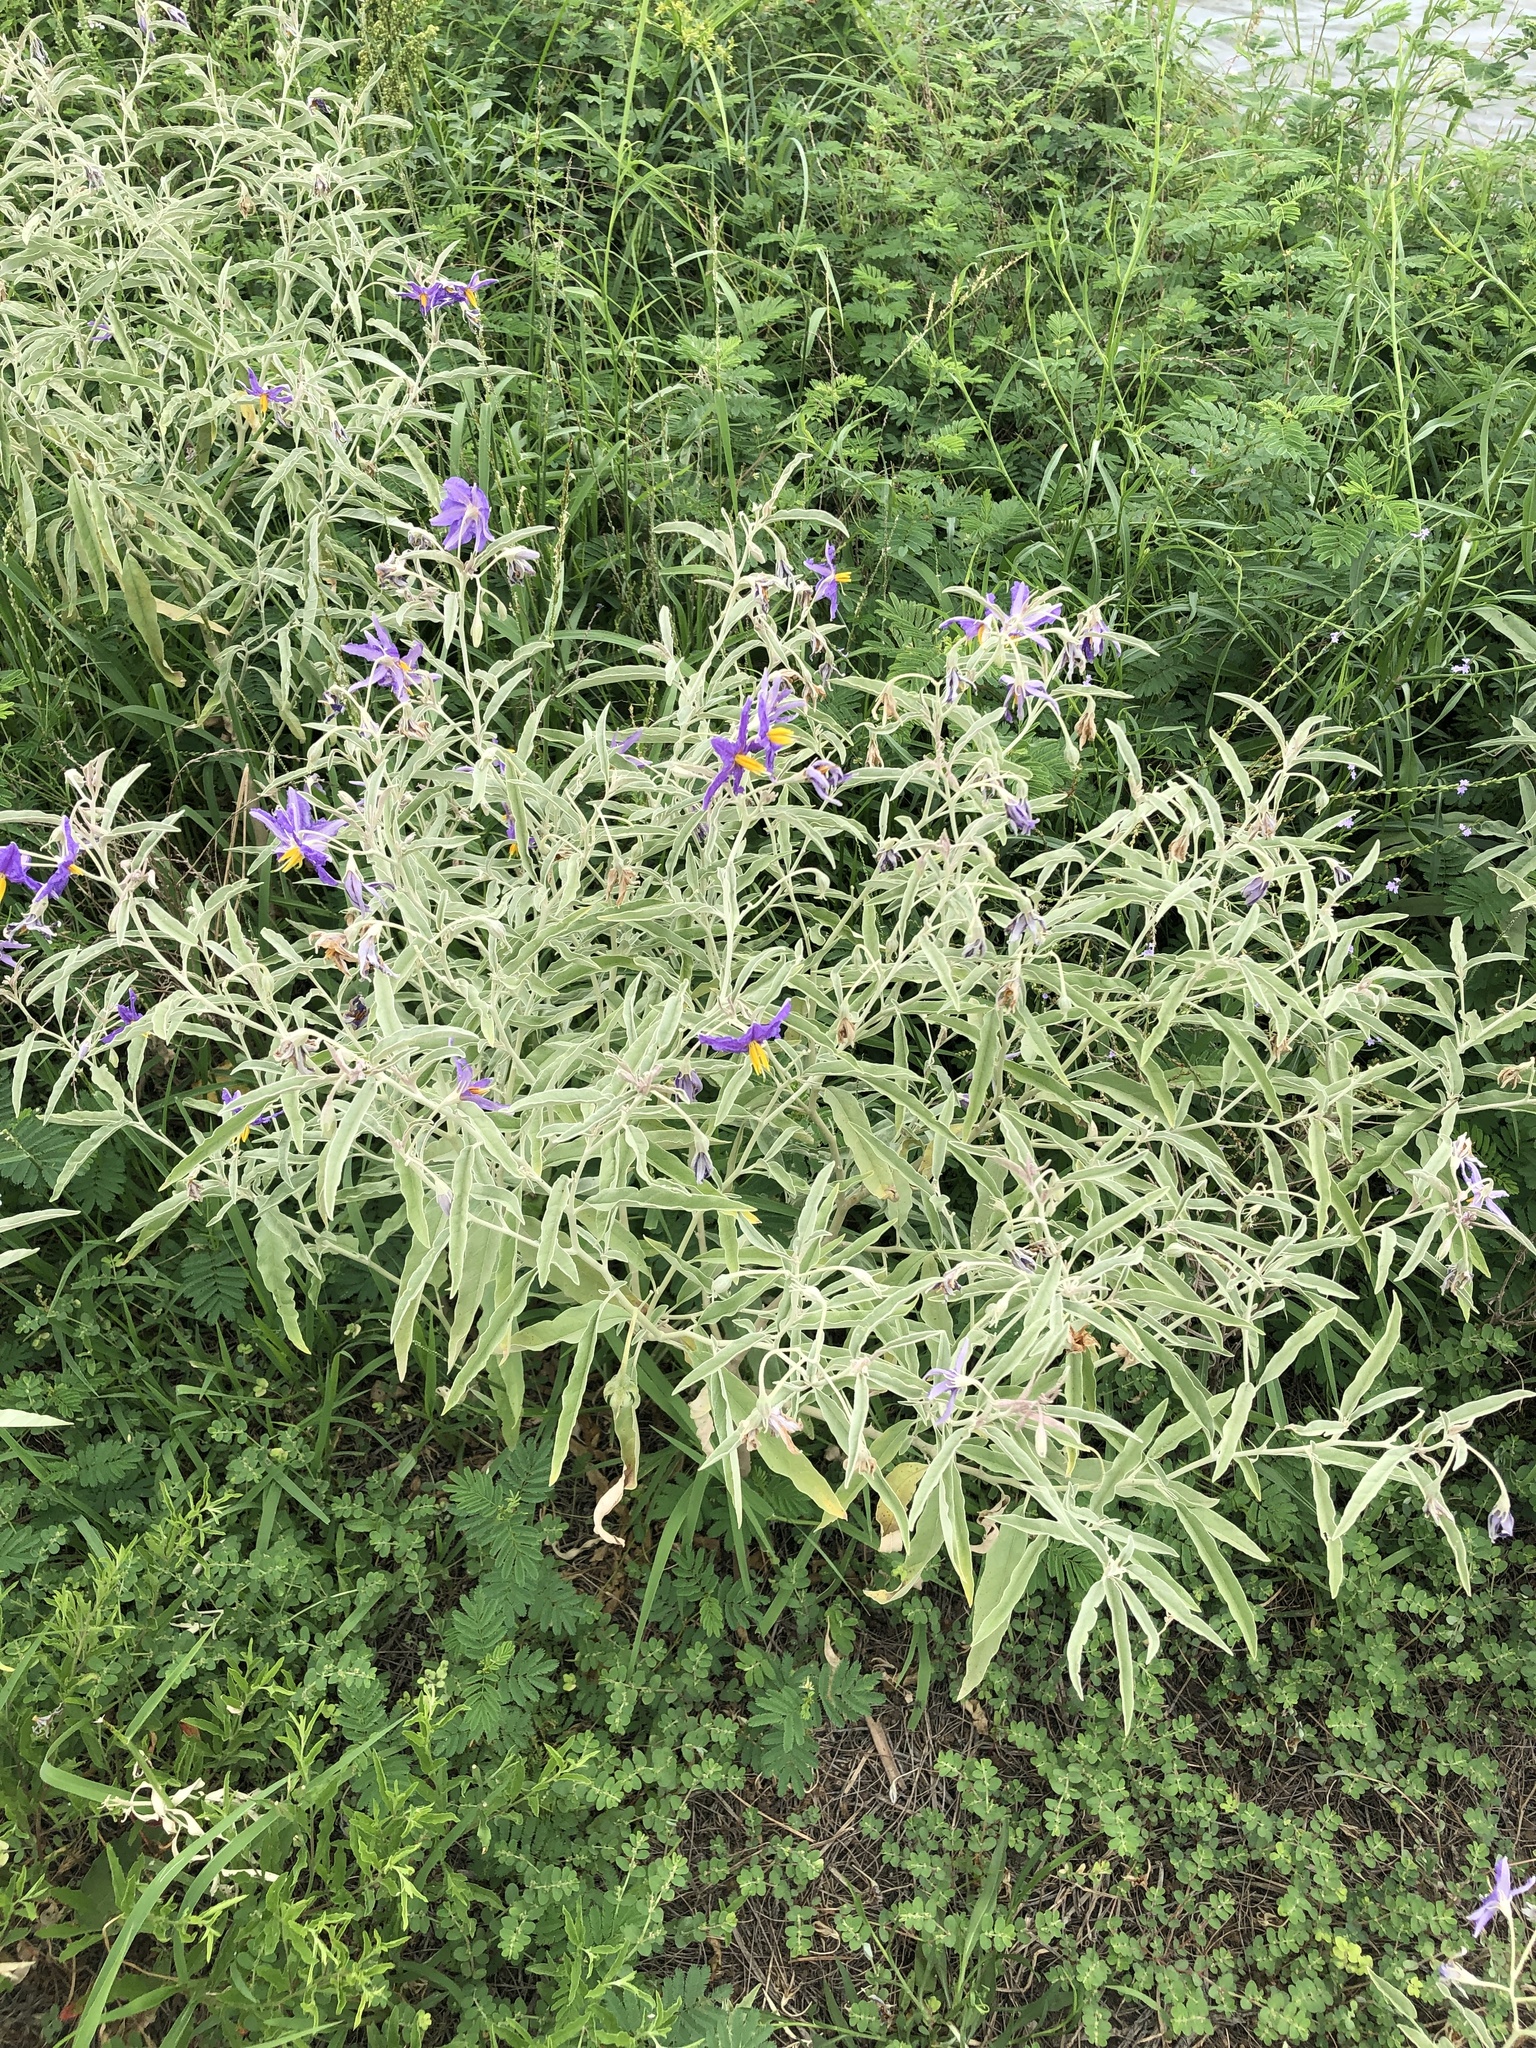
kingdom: Plantae
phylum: Tracheophyta
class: Magnoliopsida
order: Solanales
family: Solanaceae
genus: Solanum
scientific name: Solanum elaeagnifolium
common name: Silverleaf nightshade
